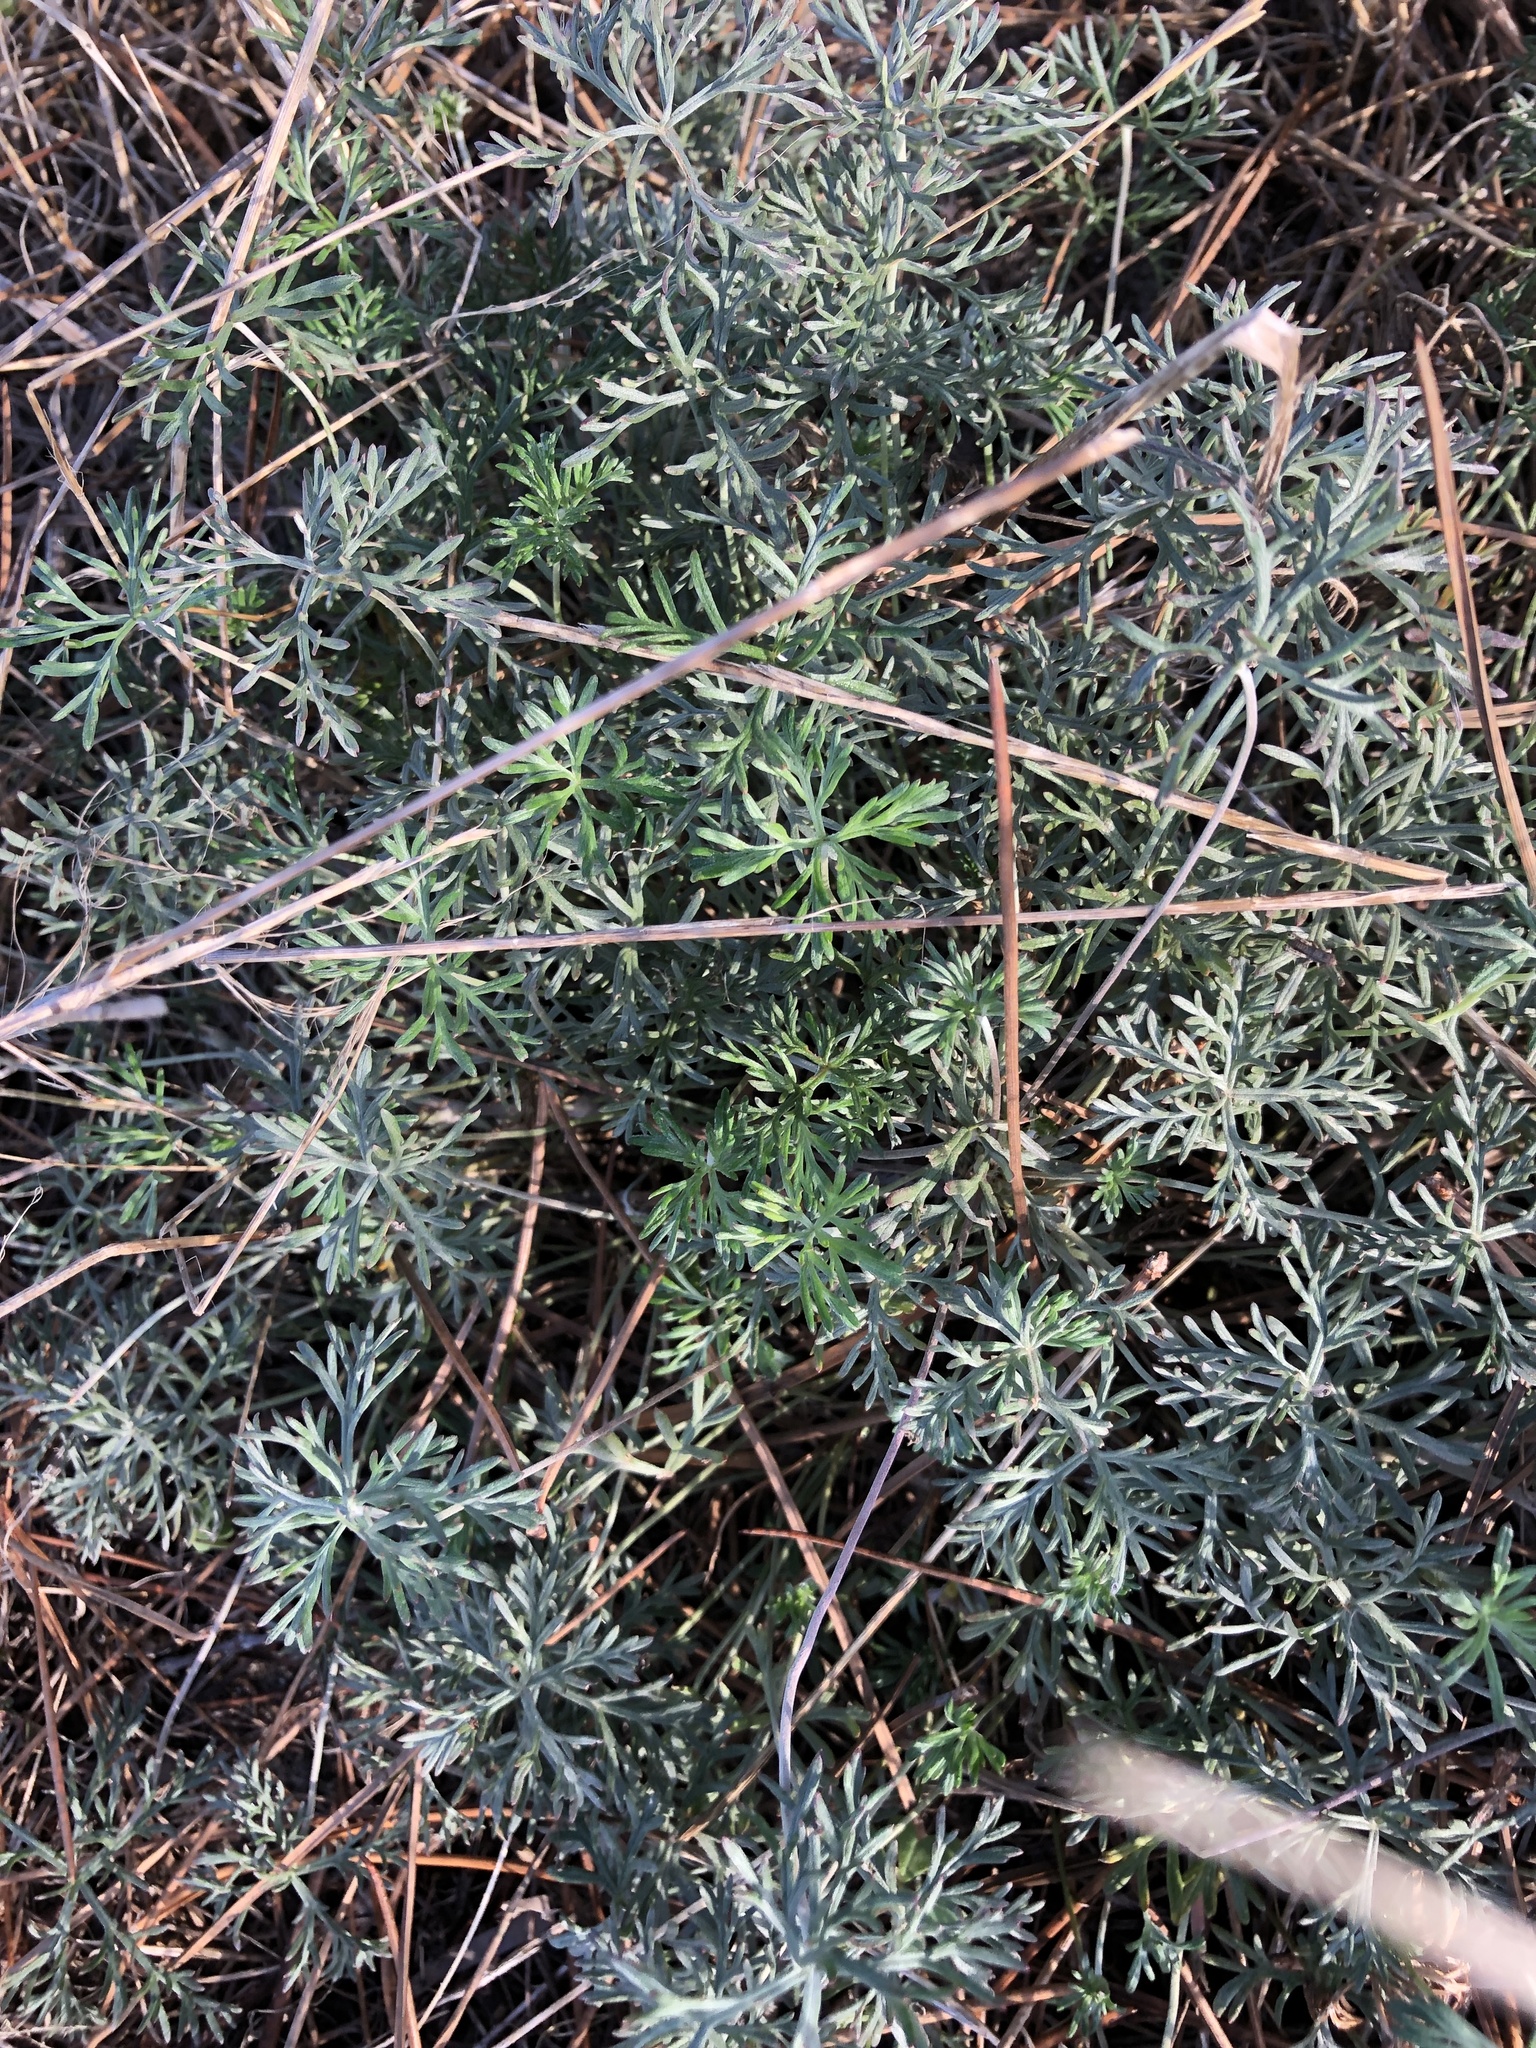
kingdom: Plantae
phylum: Tracheophyta
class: Magnoliopsida
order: Geraniales
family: Geraniaceae
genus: Geranium
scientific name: Geranium incanum
